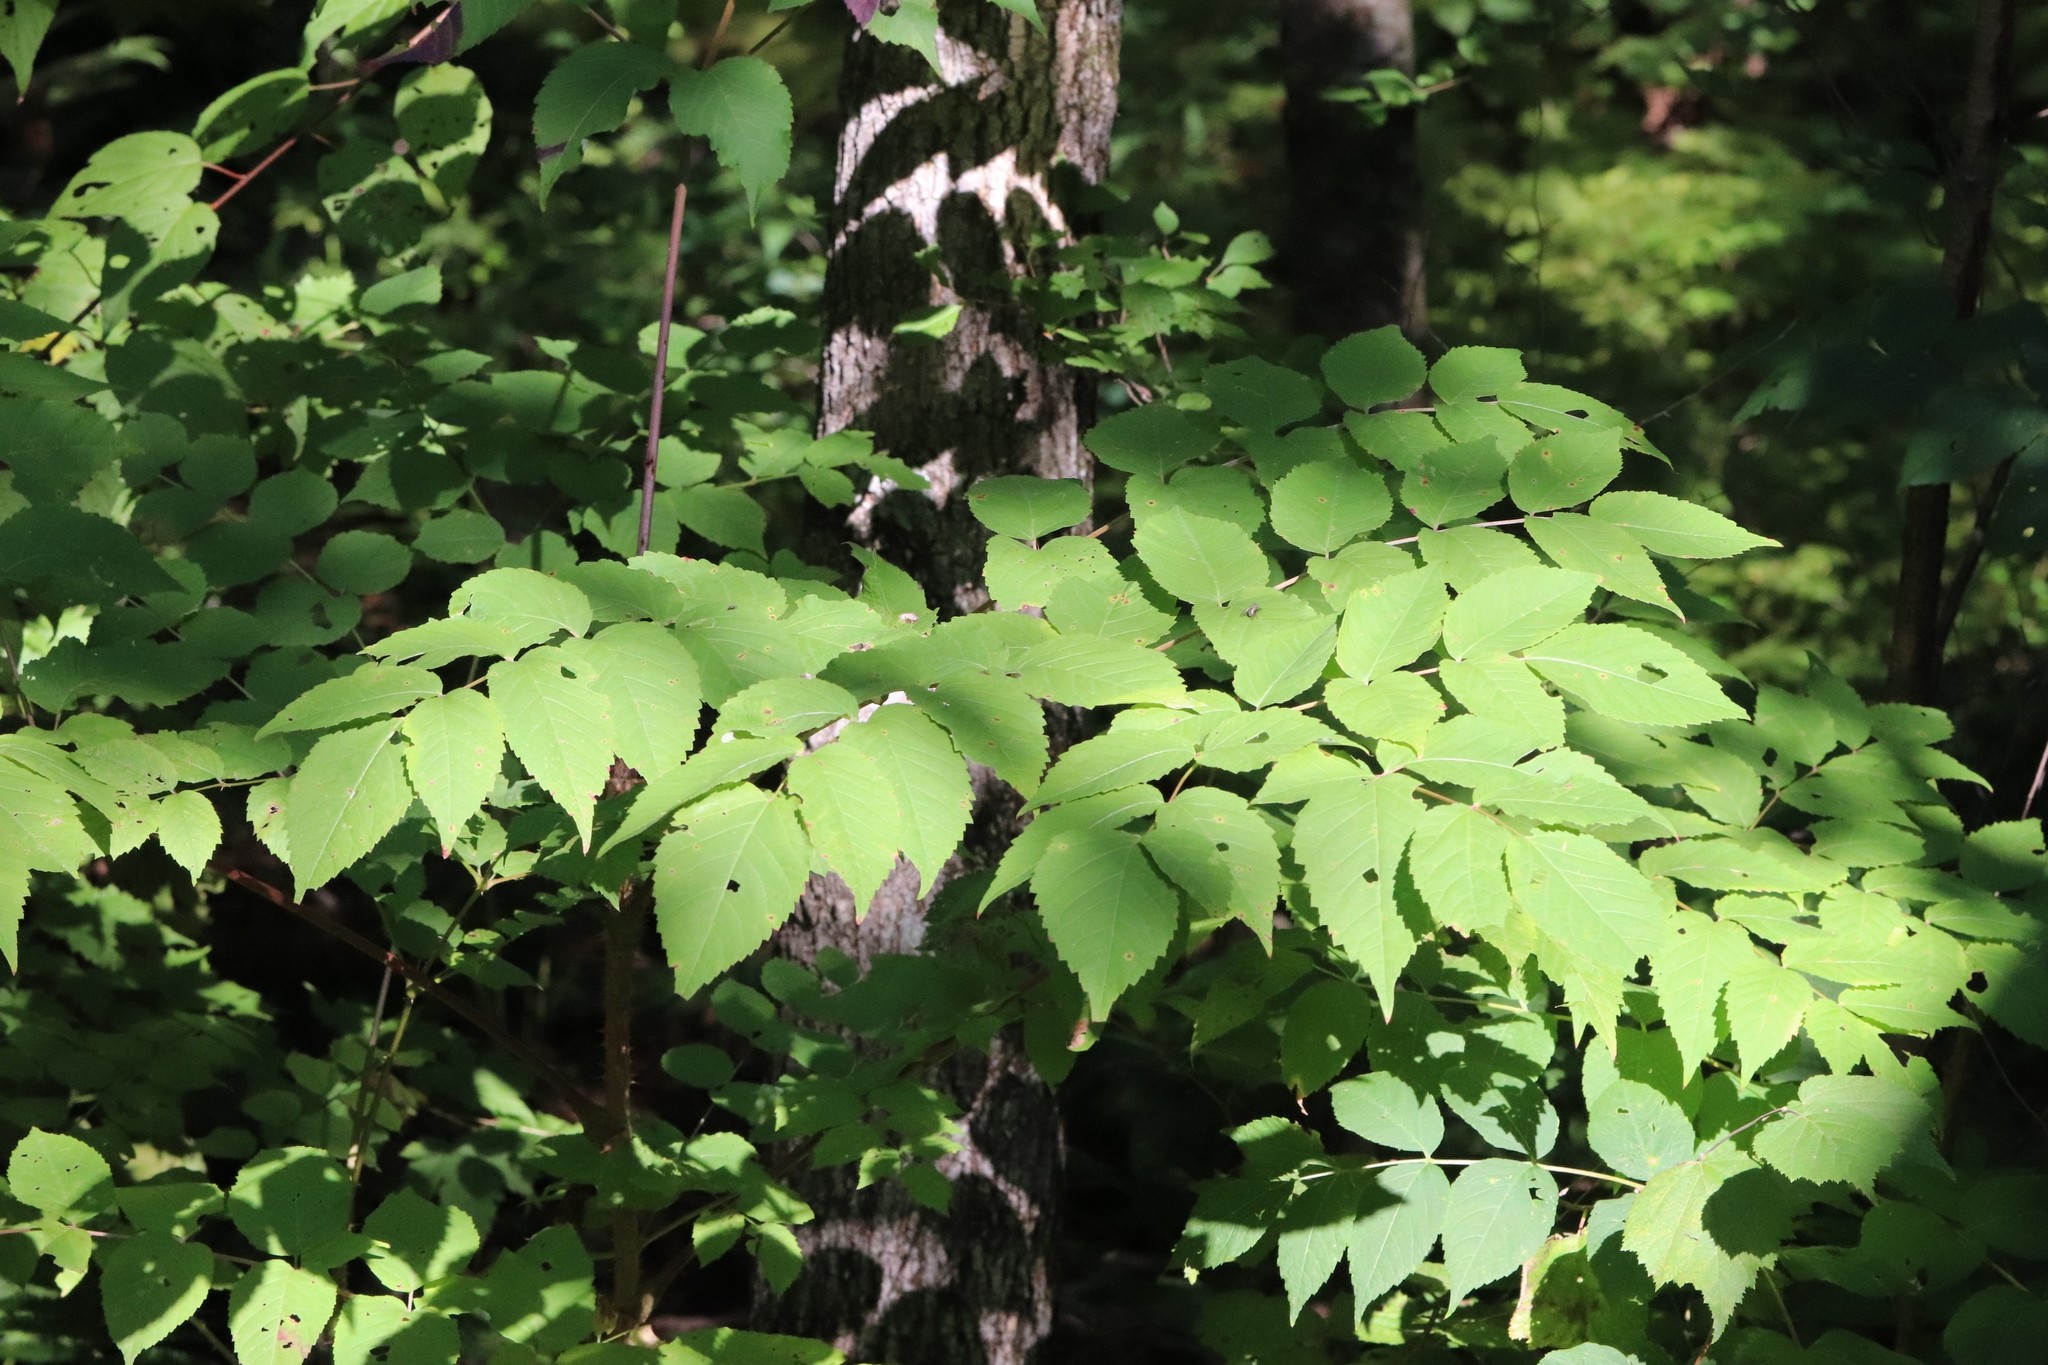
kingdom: Plantae
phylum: Tracheophyta
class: Magnoliopsida
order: Apiales
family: Araliaceae
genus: Aralia
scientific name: Aralia elata
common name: Japanese angelica-tree
